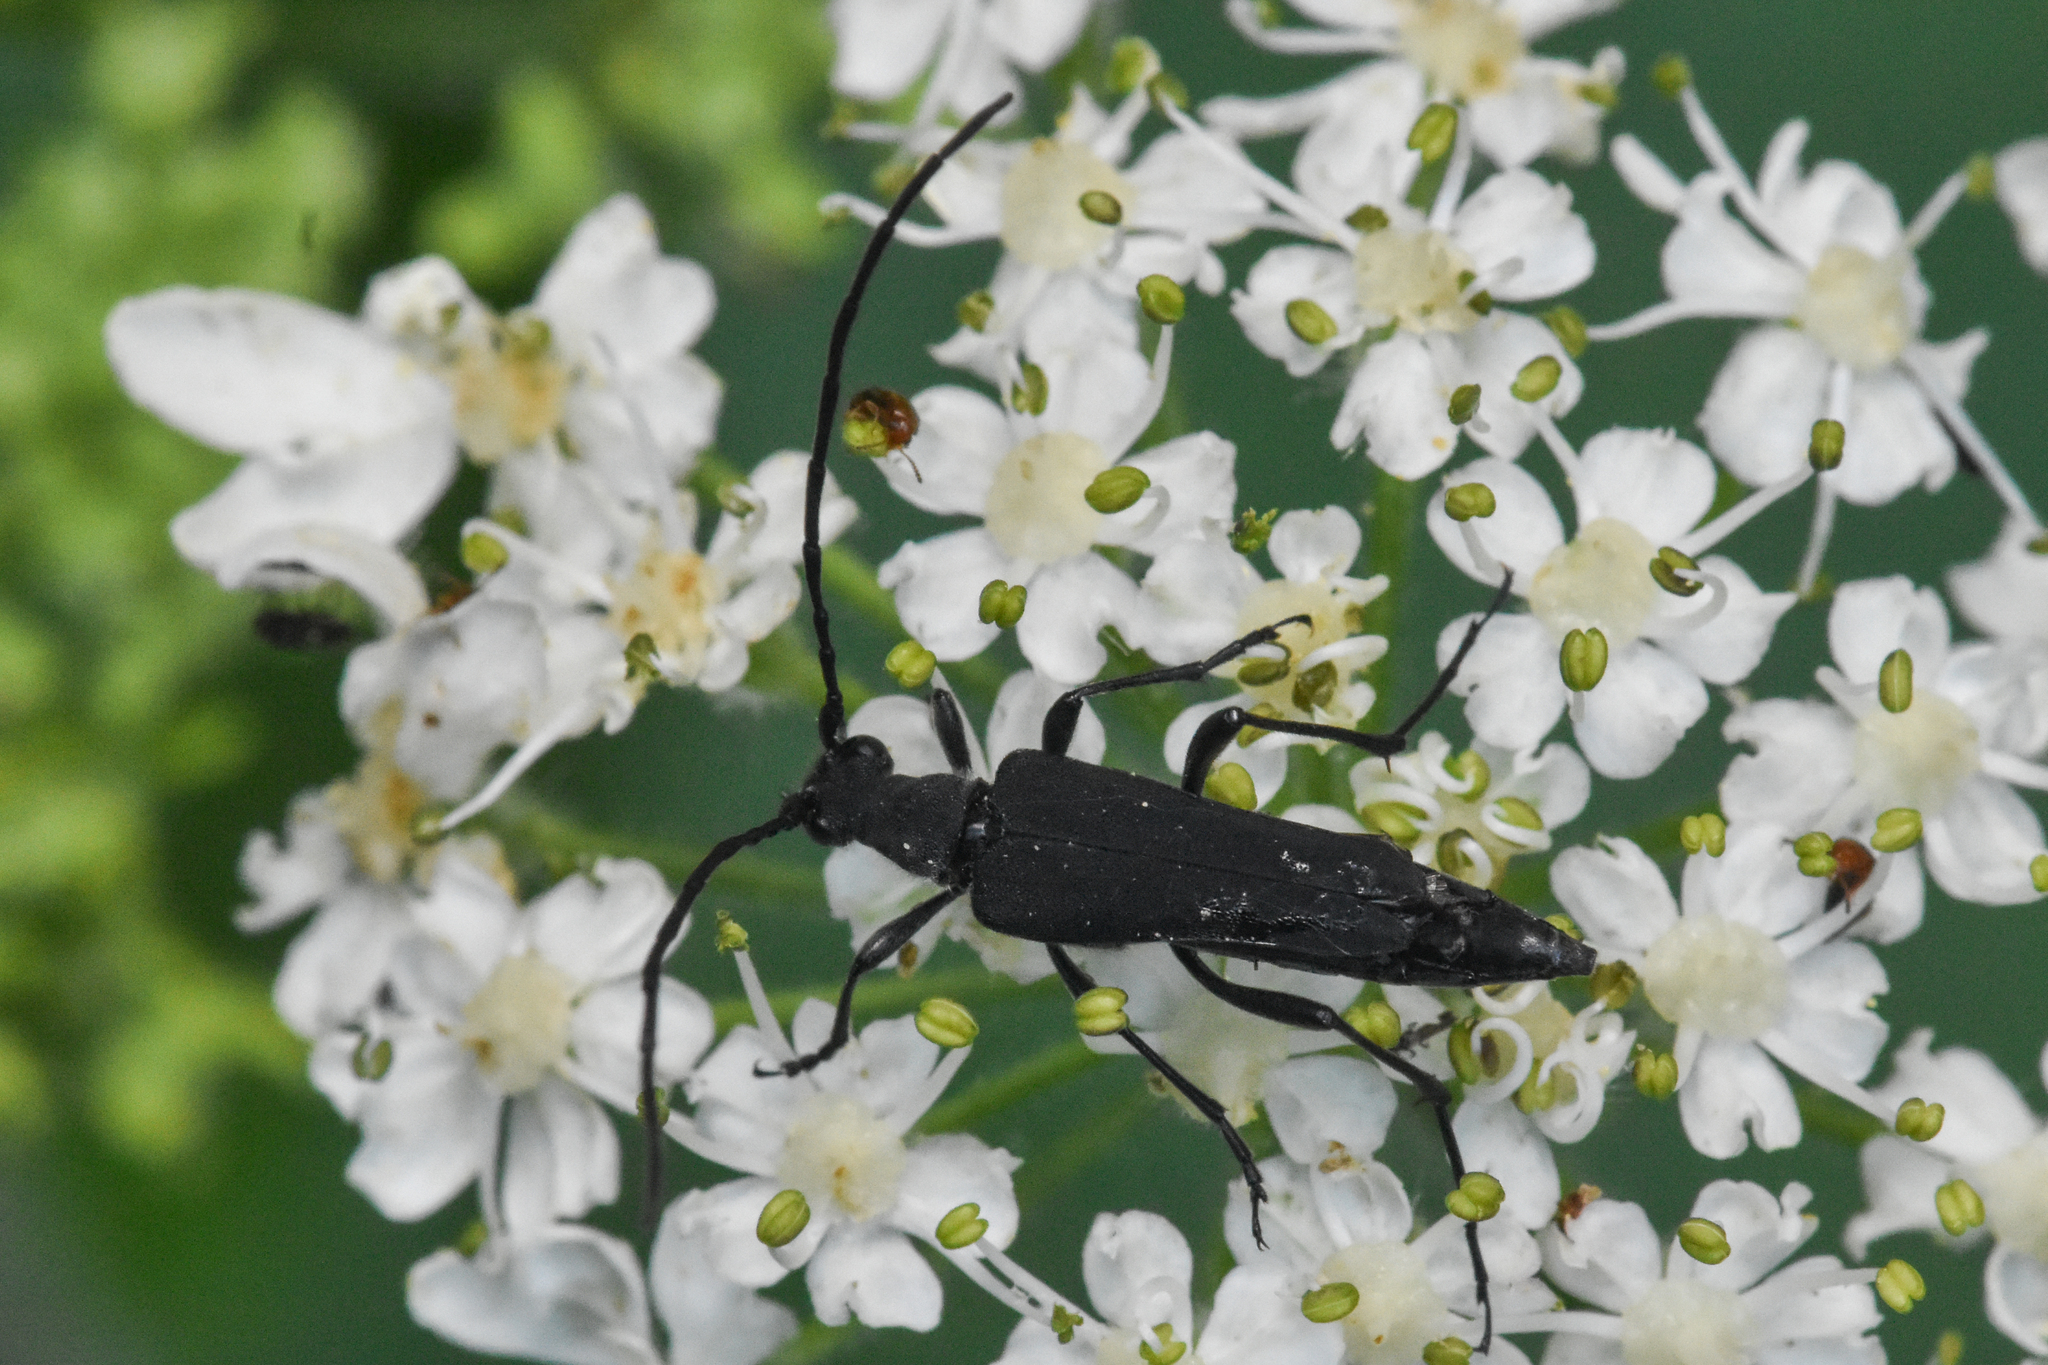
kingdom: Animalia
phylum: Arthropoda
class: Insecta
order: Coleoptera
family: Cerambycidae
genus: Trachysida
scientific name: Trachysida aspera
